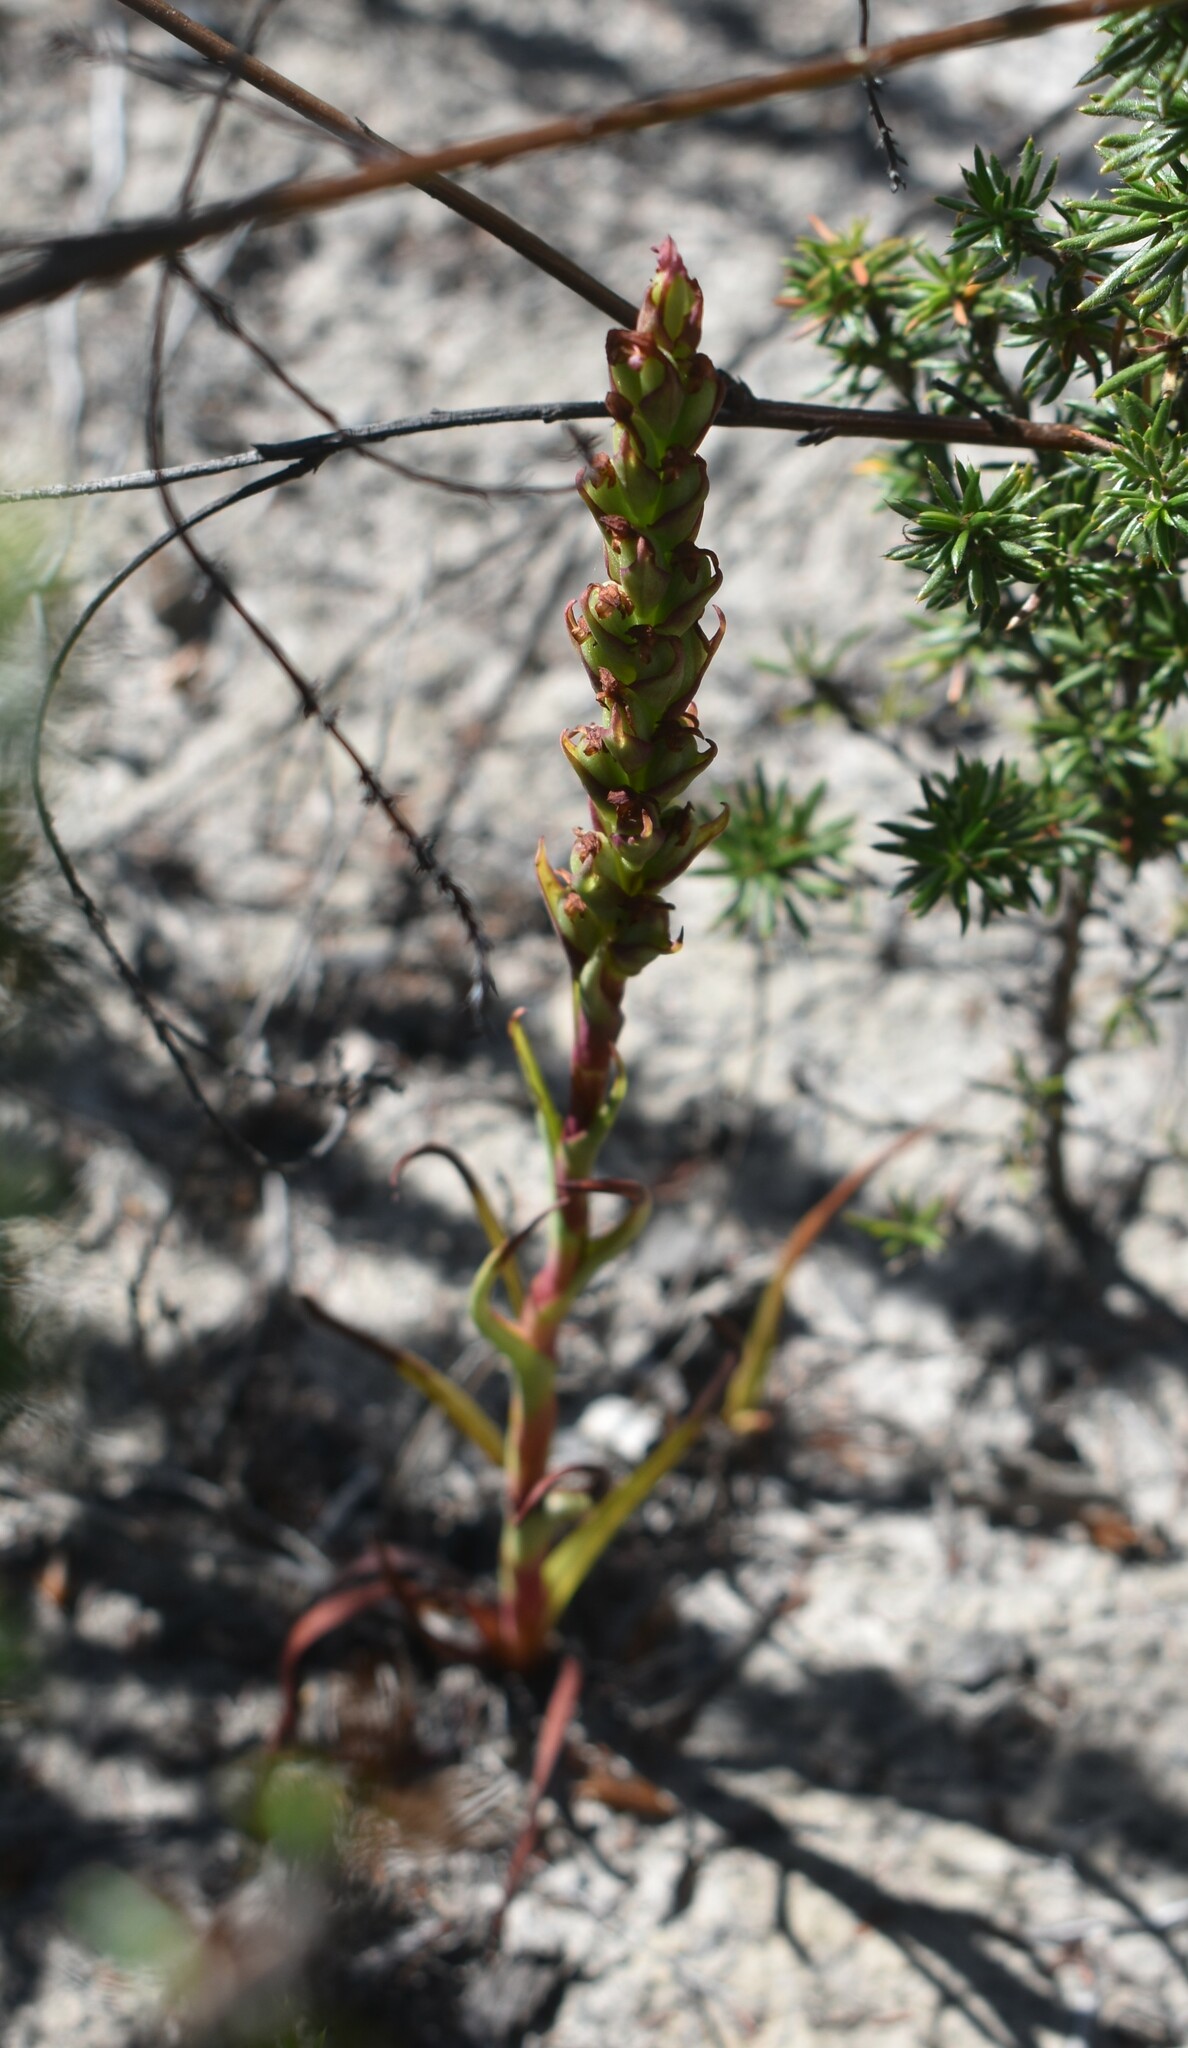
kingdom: Plantae
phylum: Tracheophyta
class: Liliopsida
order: Asparagales
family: Orchidaceae
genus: Disa
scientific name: Disa bracteata
